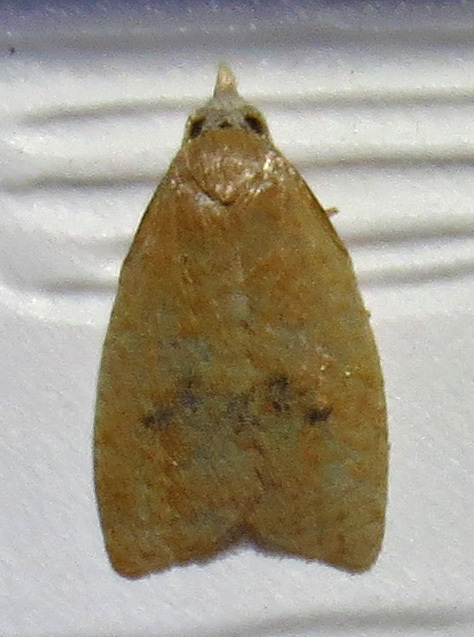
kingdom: Animalia
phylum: Arthropoda
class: Insecta
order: Lepidoptera
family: Tortricidae
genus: Coelostathma
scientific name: Coelostathma discopunctana
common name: Batman moth
